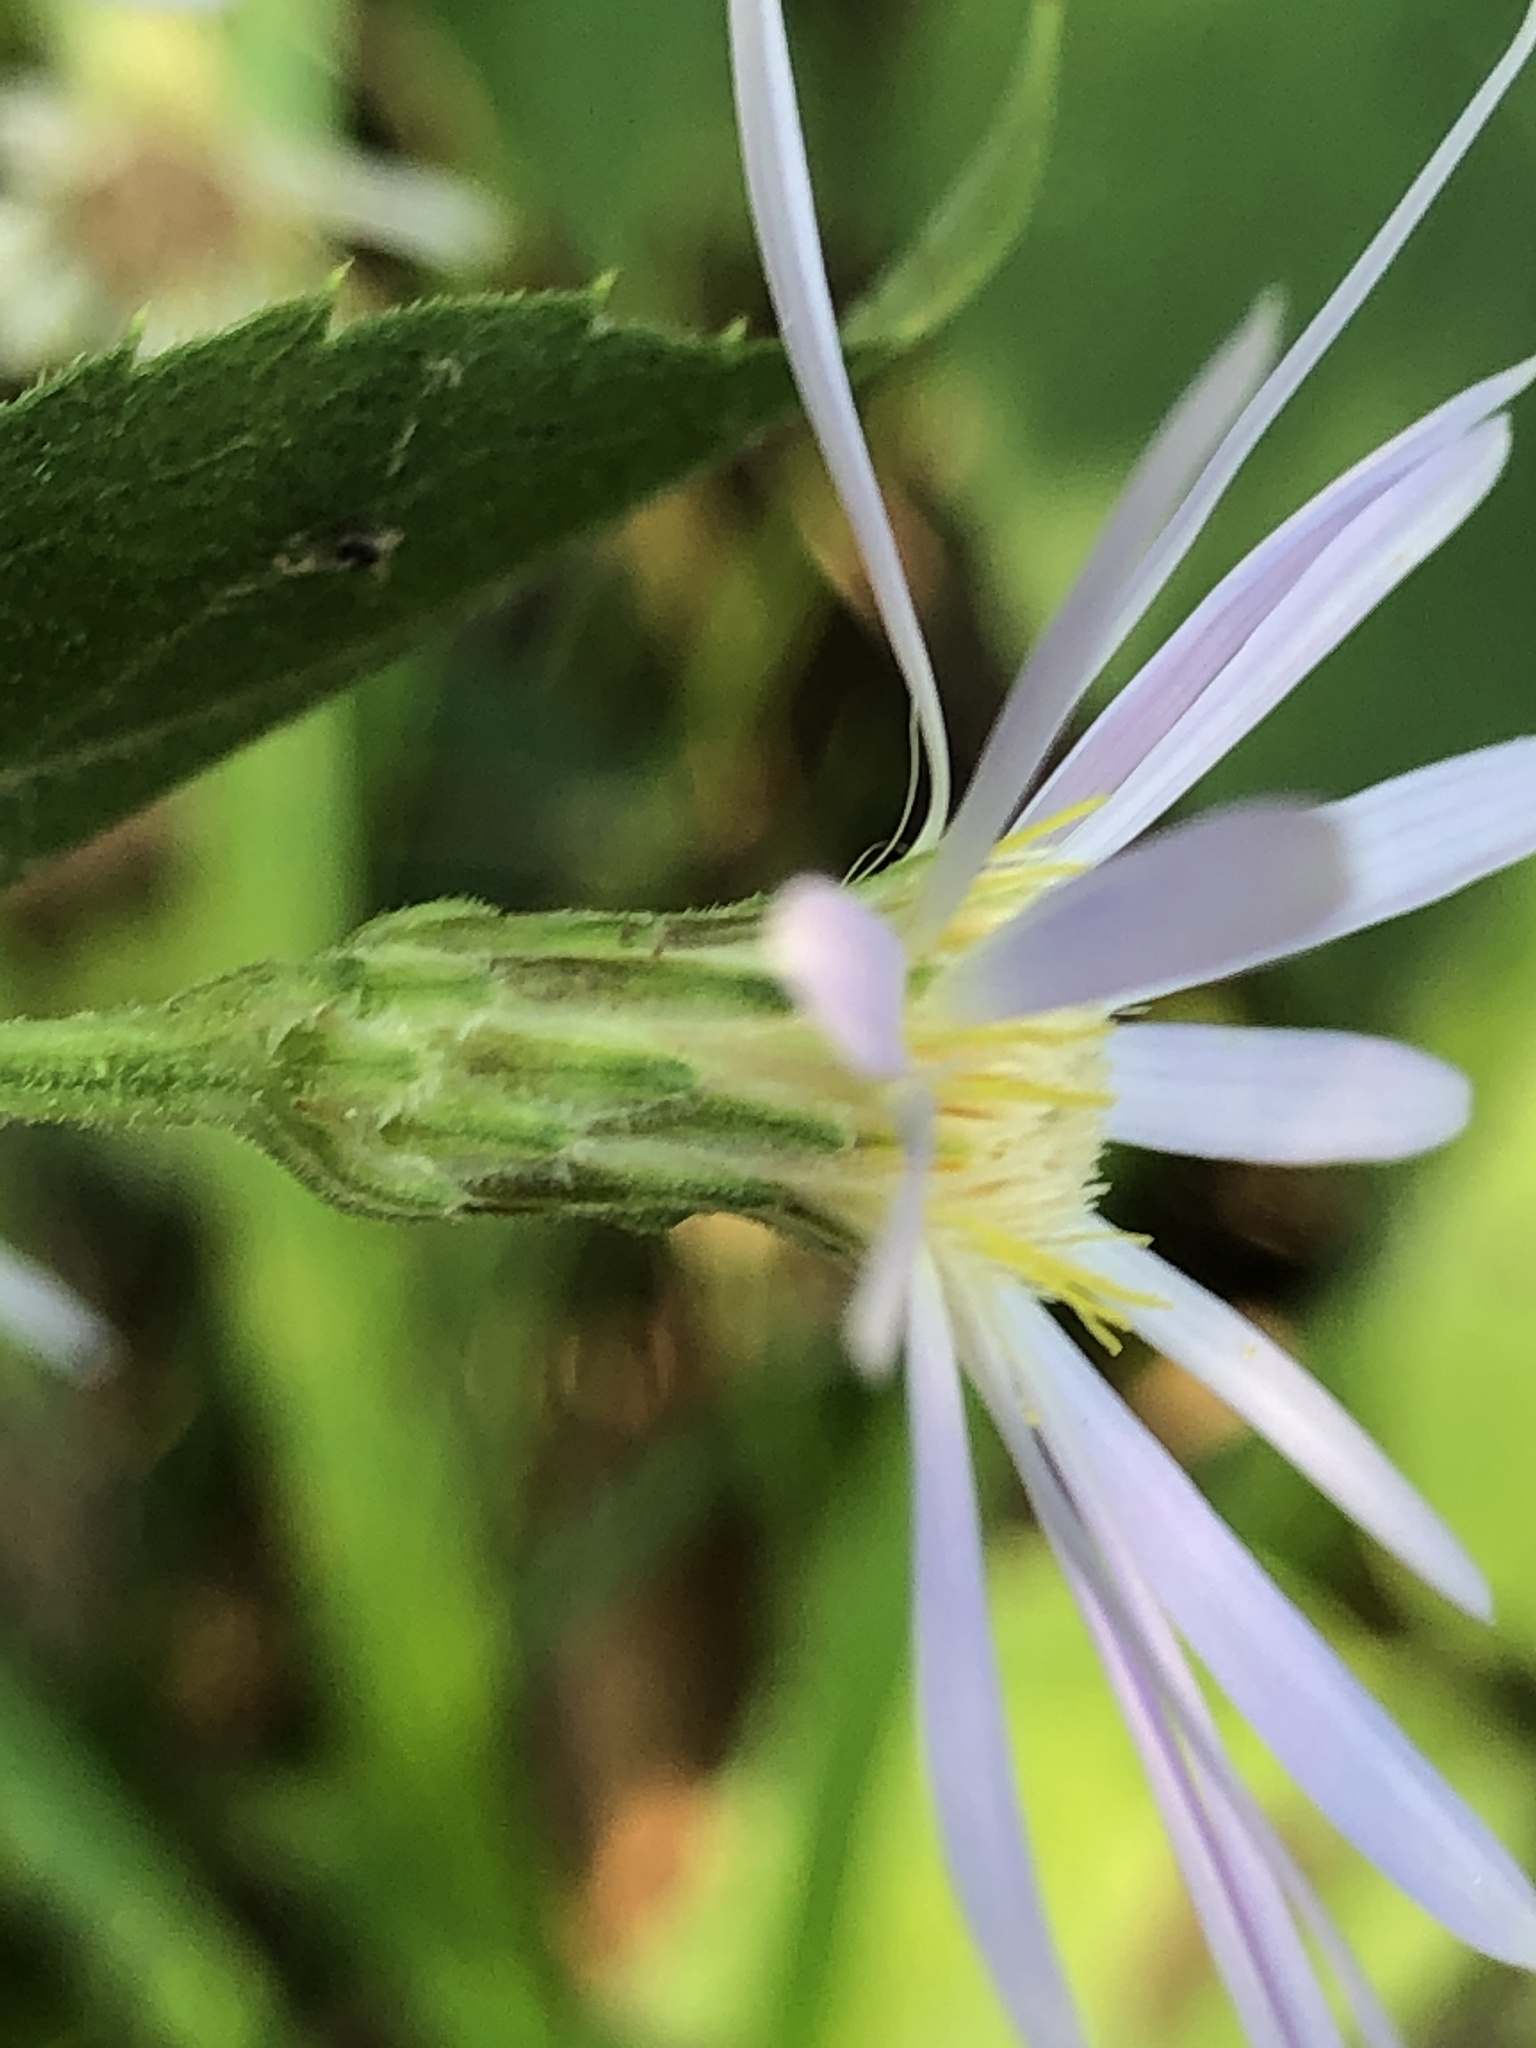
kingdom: Plantae
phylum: Tracheophyta
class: Magnoliopsida
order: Asterales
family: Asteraceae
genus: Eurybia
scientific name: Eurybia macrophylla
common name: Big-leaved aster
